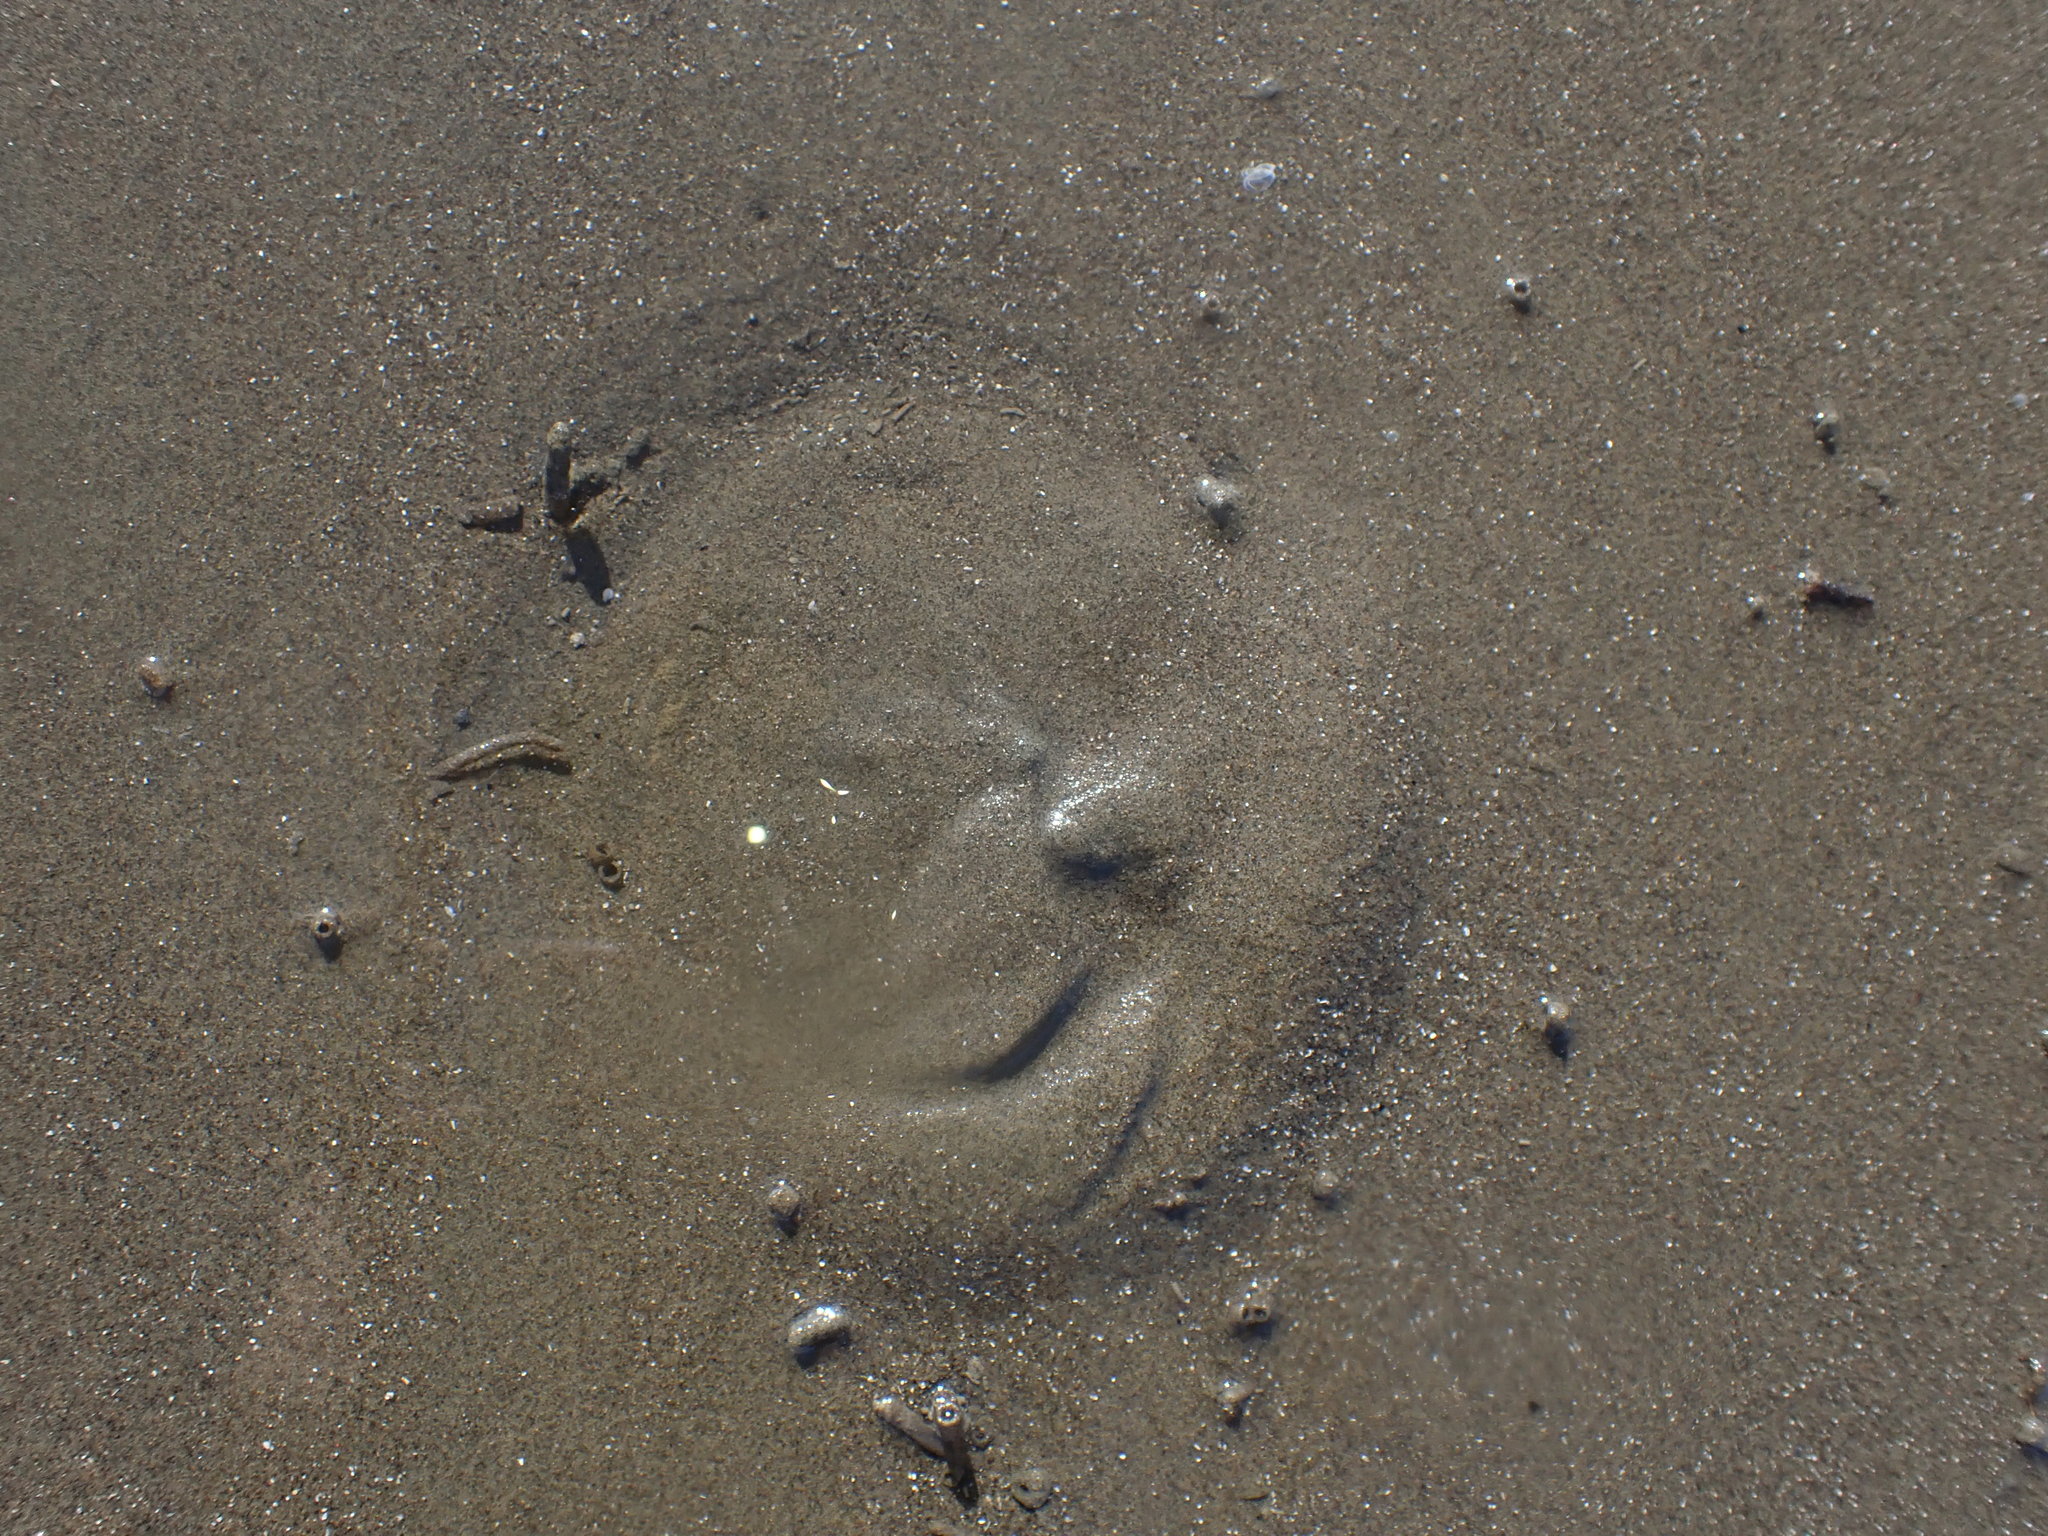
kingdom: Animalia
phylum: Echinodermata
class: Echinoidea
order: Clypeasteroida
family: Clypeasteridae
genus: Fellaster
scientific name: Fellaster zelandiae
